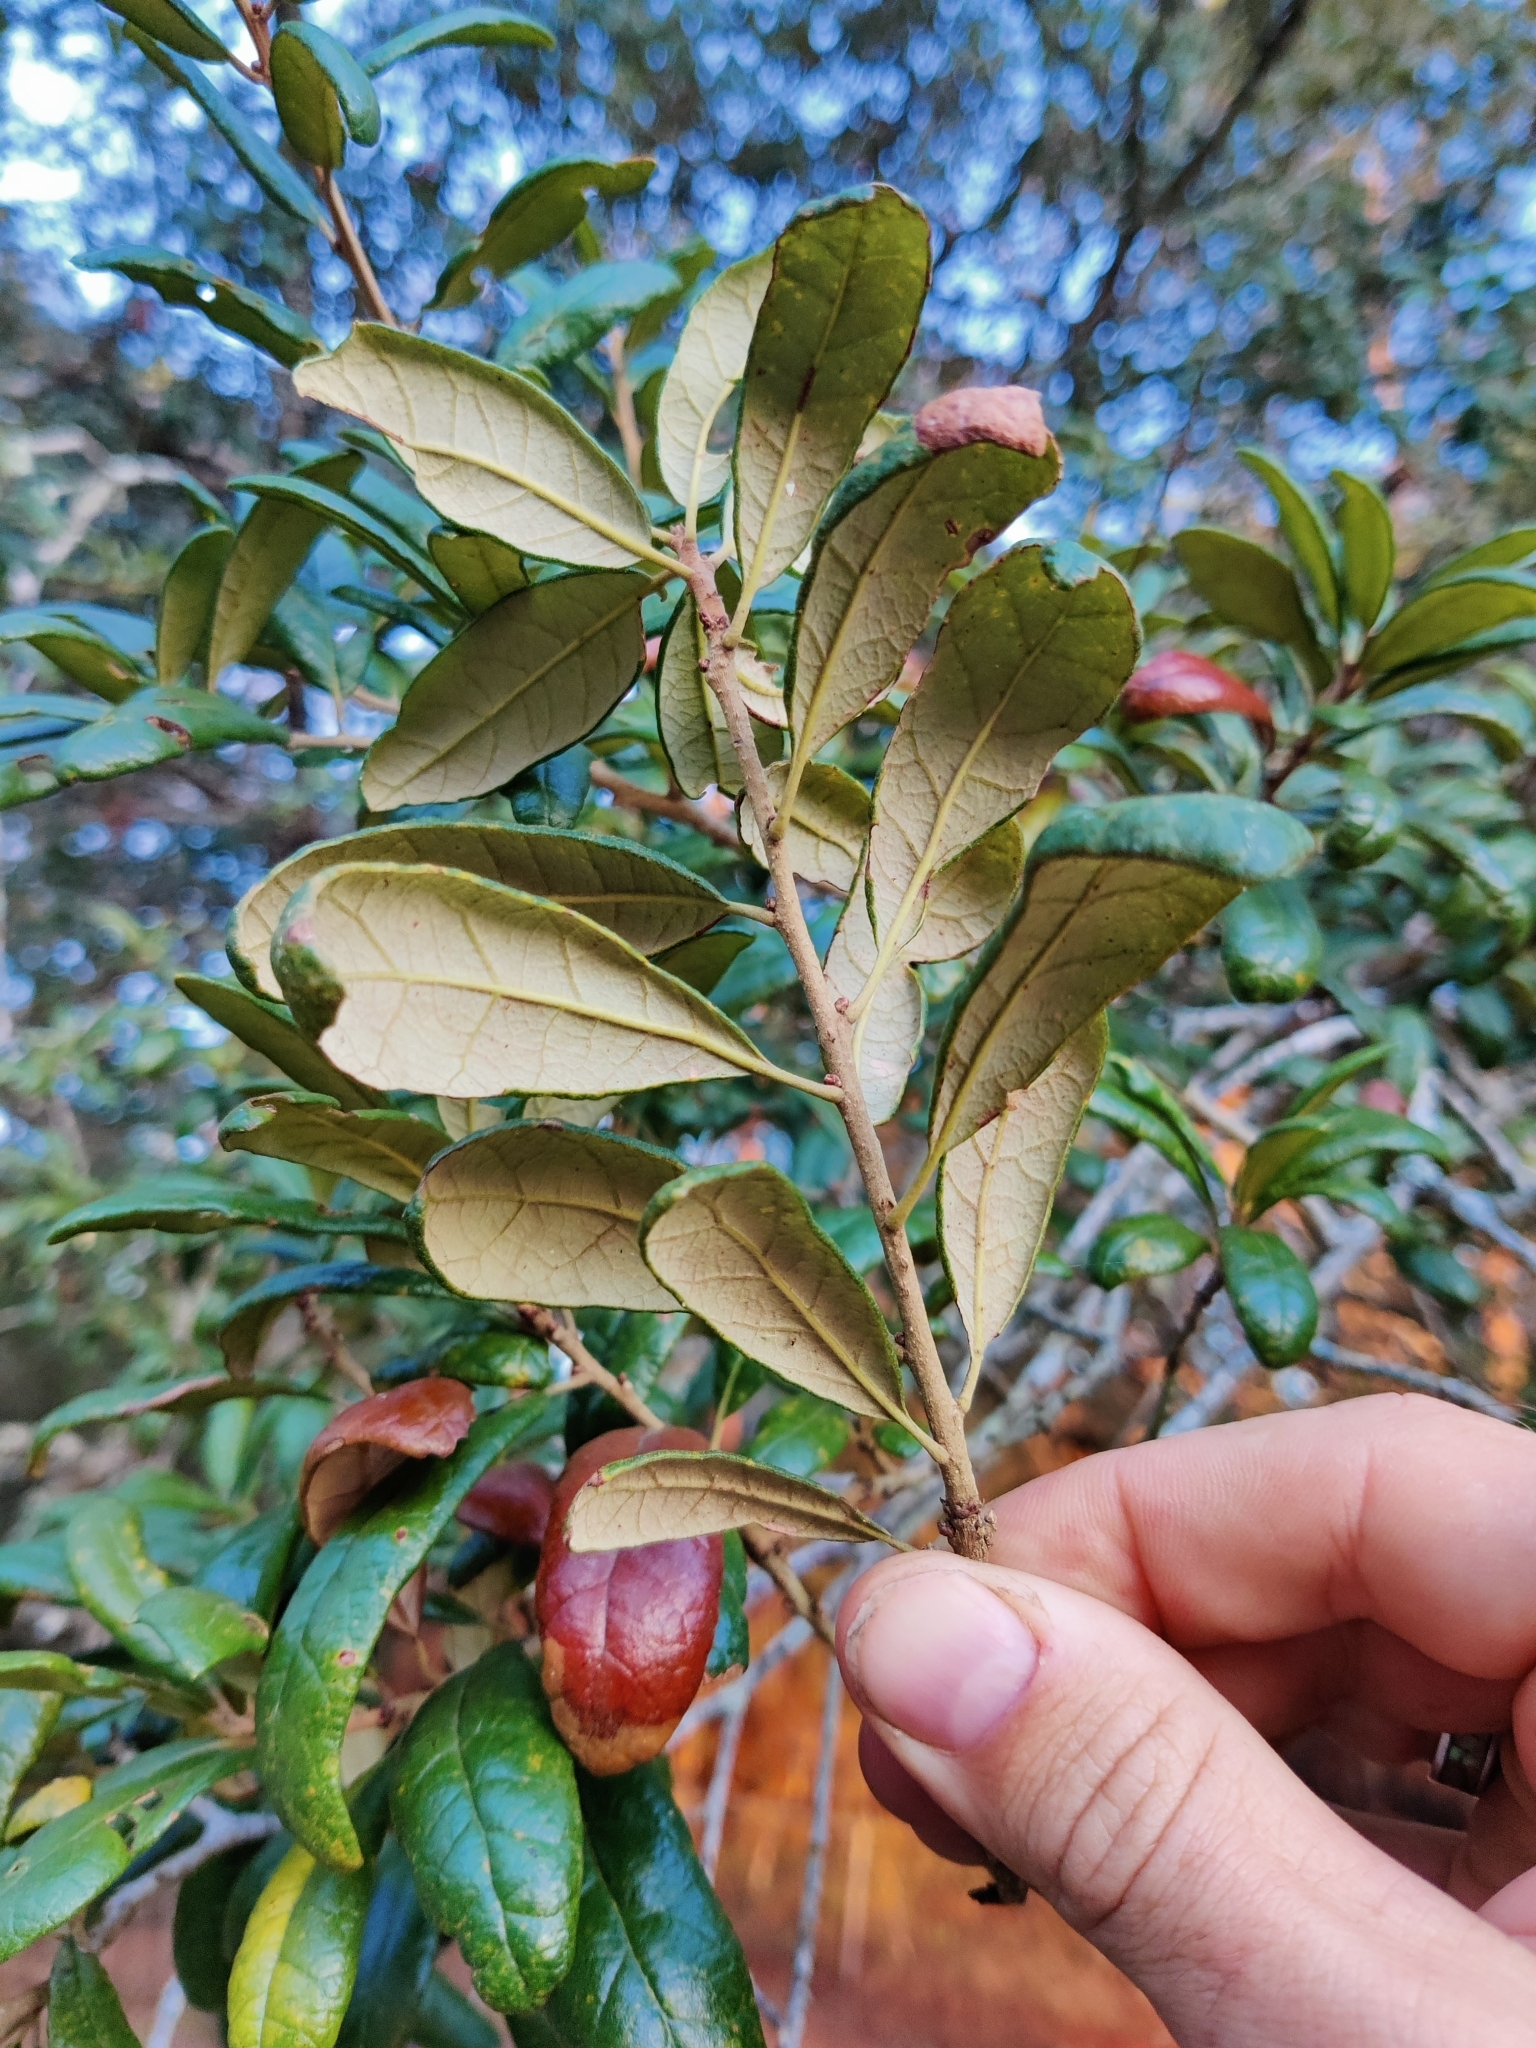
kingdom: Plantae
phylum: Tracheophyta
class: Magnoliopsida
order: Fagales
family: Fagaceae
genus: Quercus
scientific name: Quercus geminata
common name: Sand live oak
